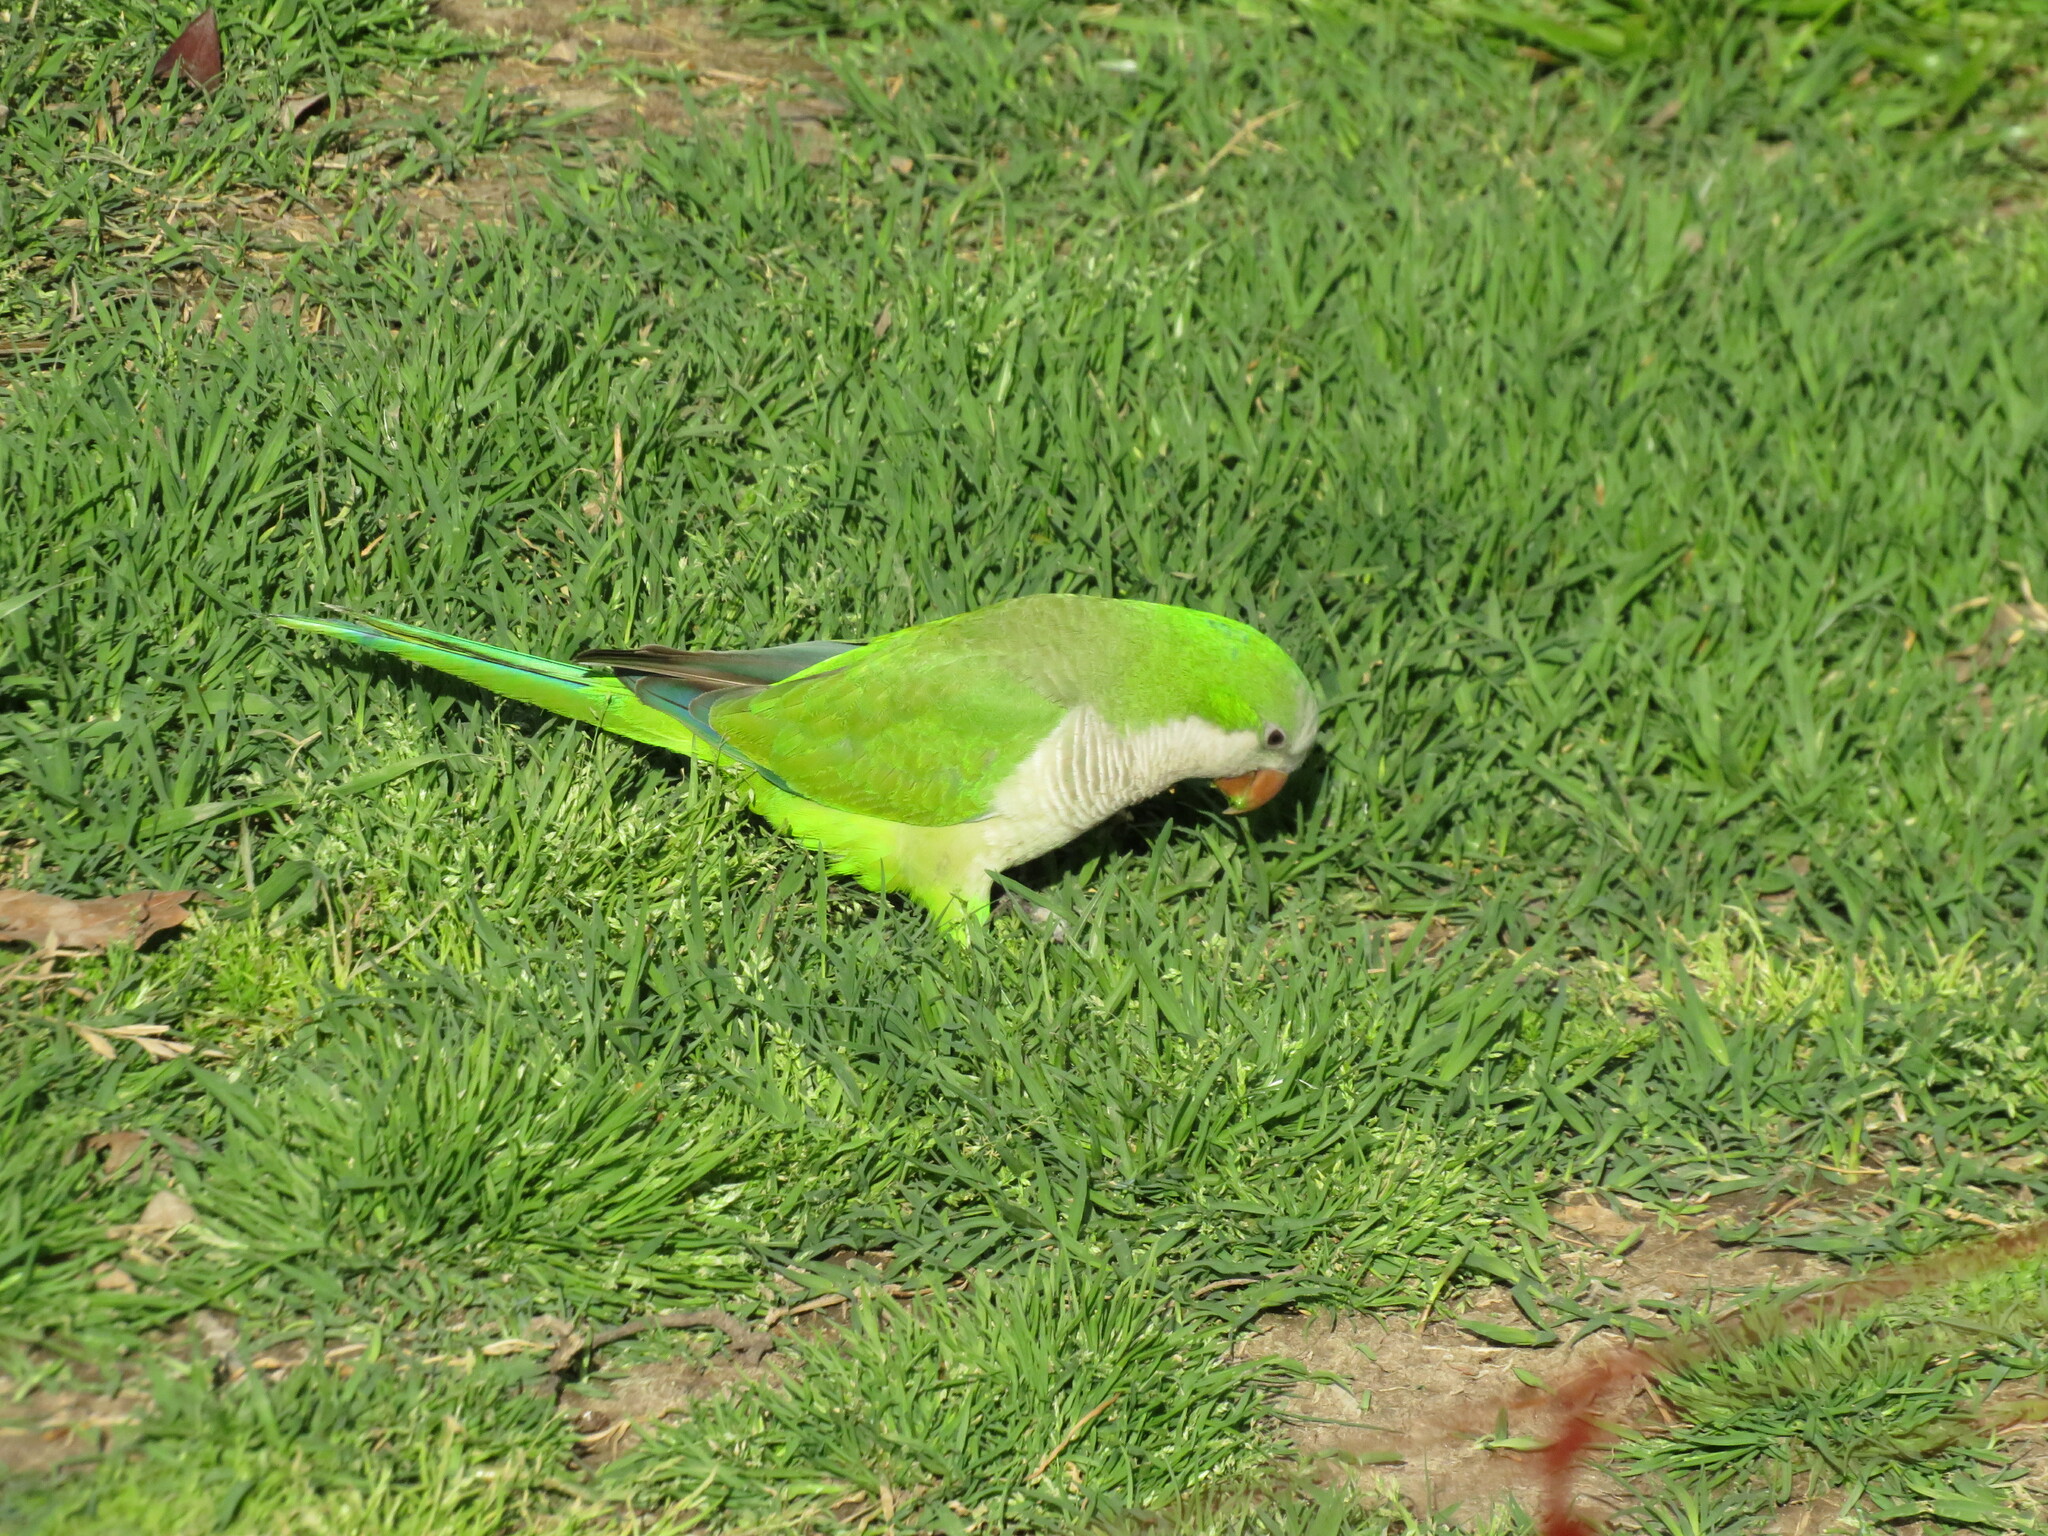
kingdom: Animalia
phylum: Chordata
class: Aves
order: Psittaciformes
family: Psittacidae
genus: Myiopsitta
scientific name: Myiopsitta monachus
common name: Monk parakeet
